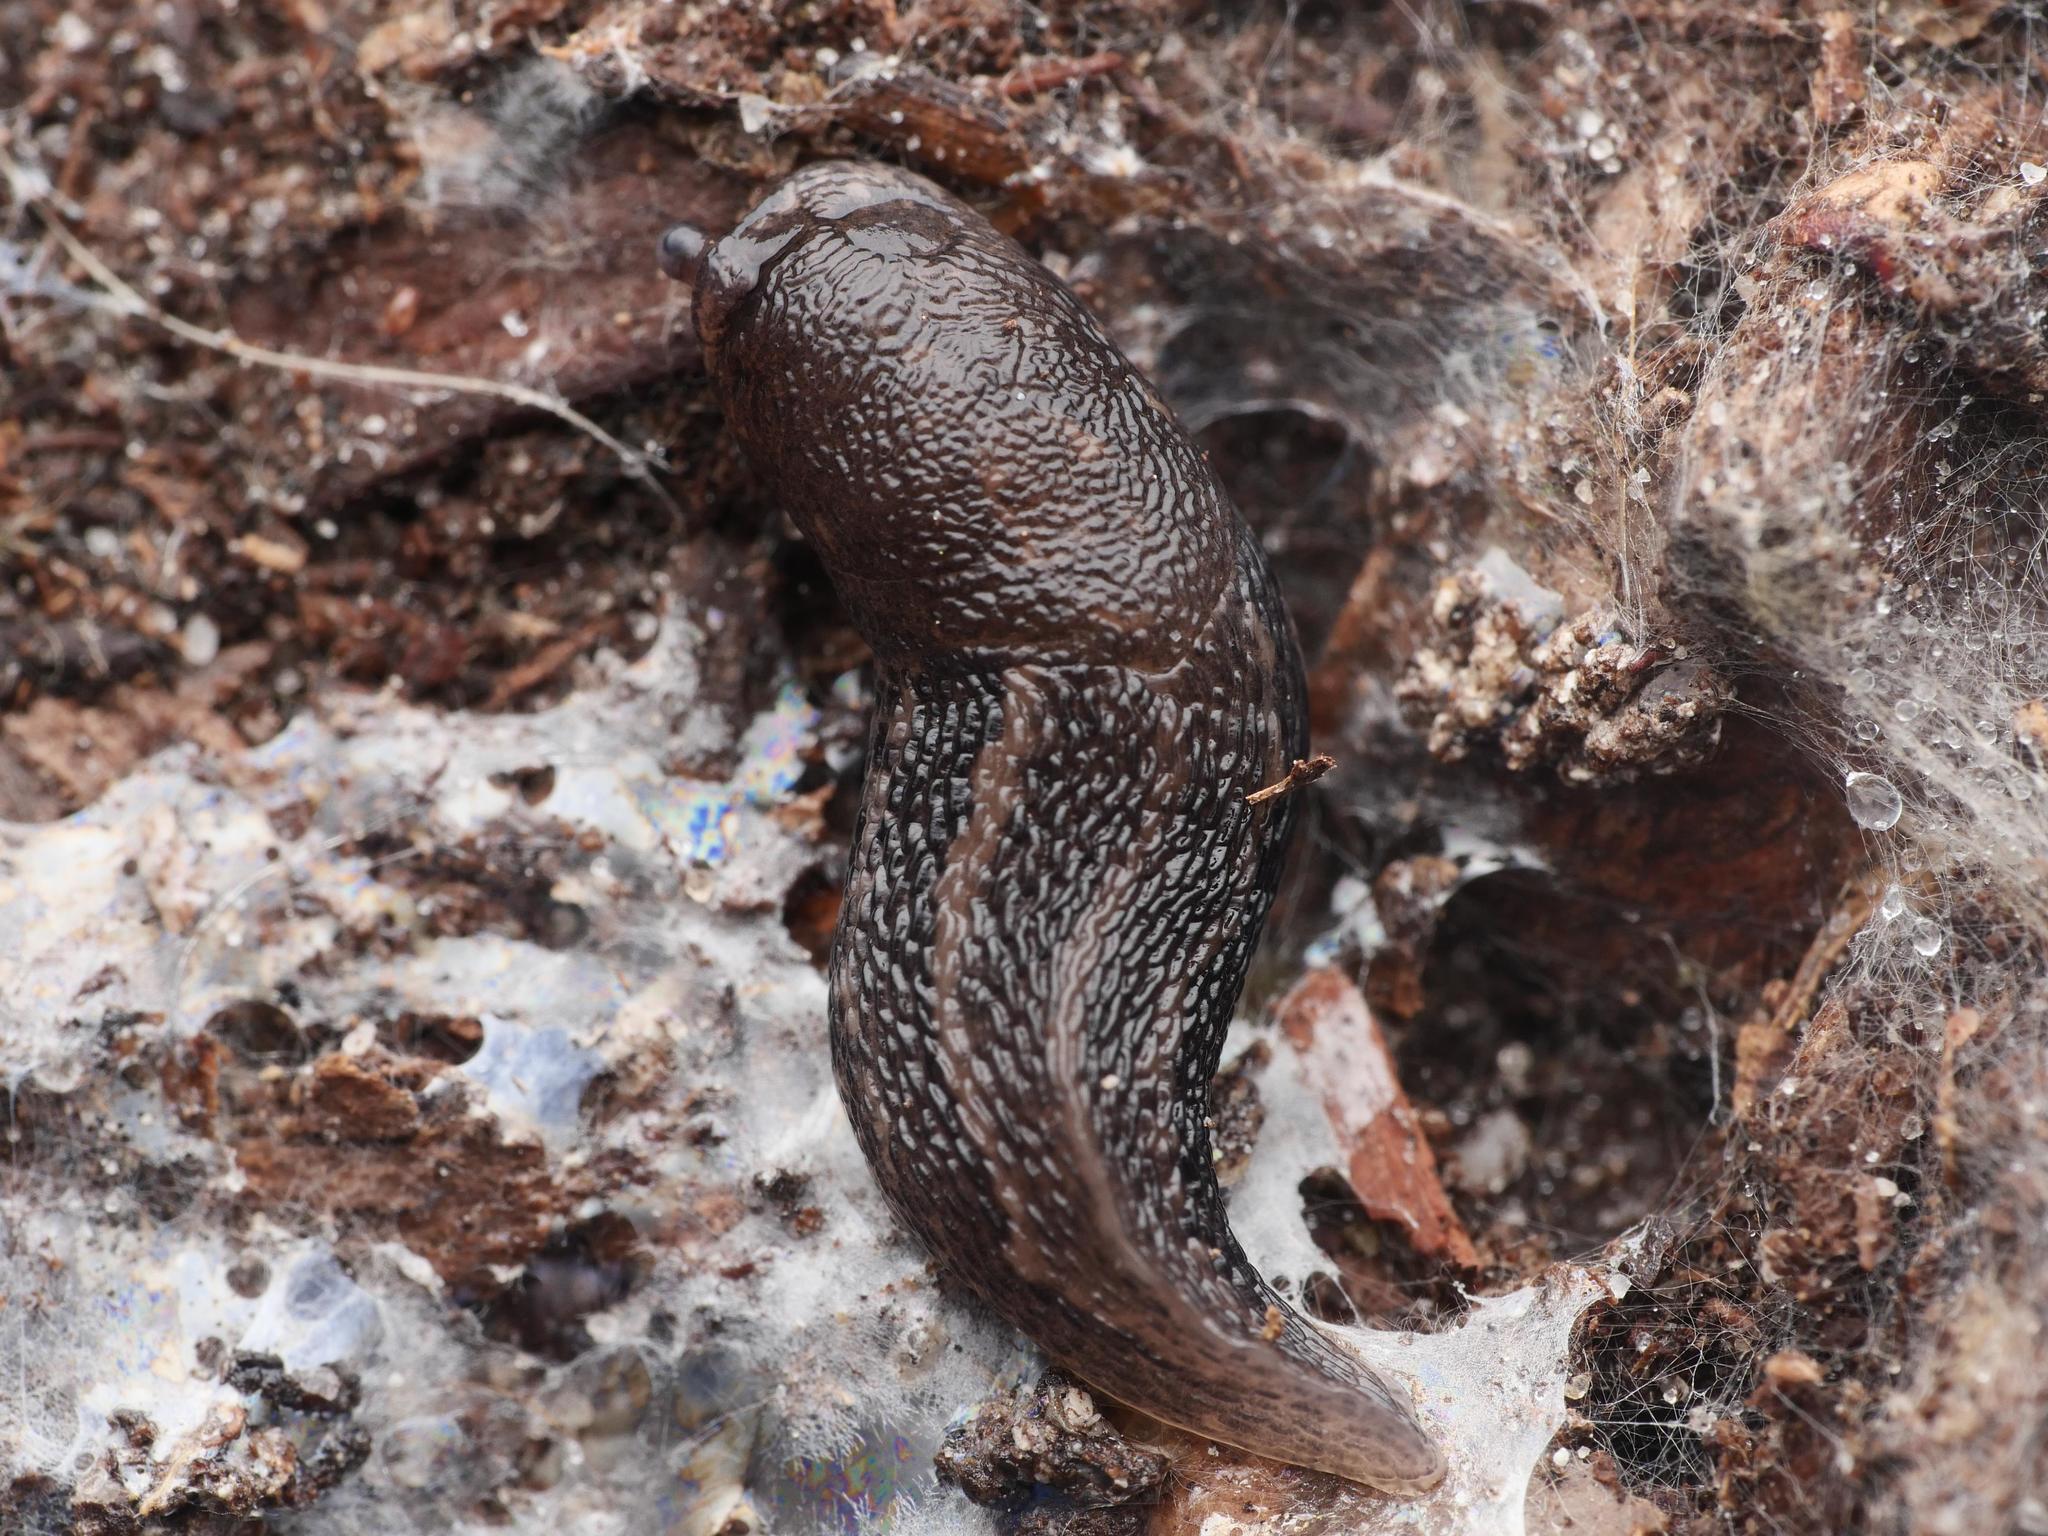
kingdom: Animalia
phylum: Mollusca
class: Gastropoda
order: Stylommatophora
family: Limacidae
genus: Limax
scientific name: Limax maximus
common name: Great grey slug
